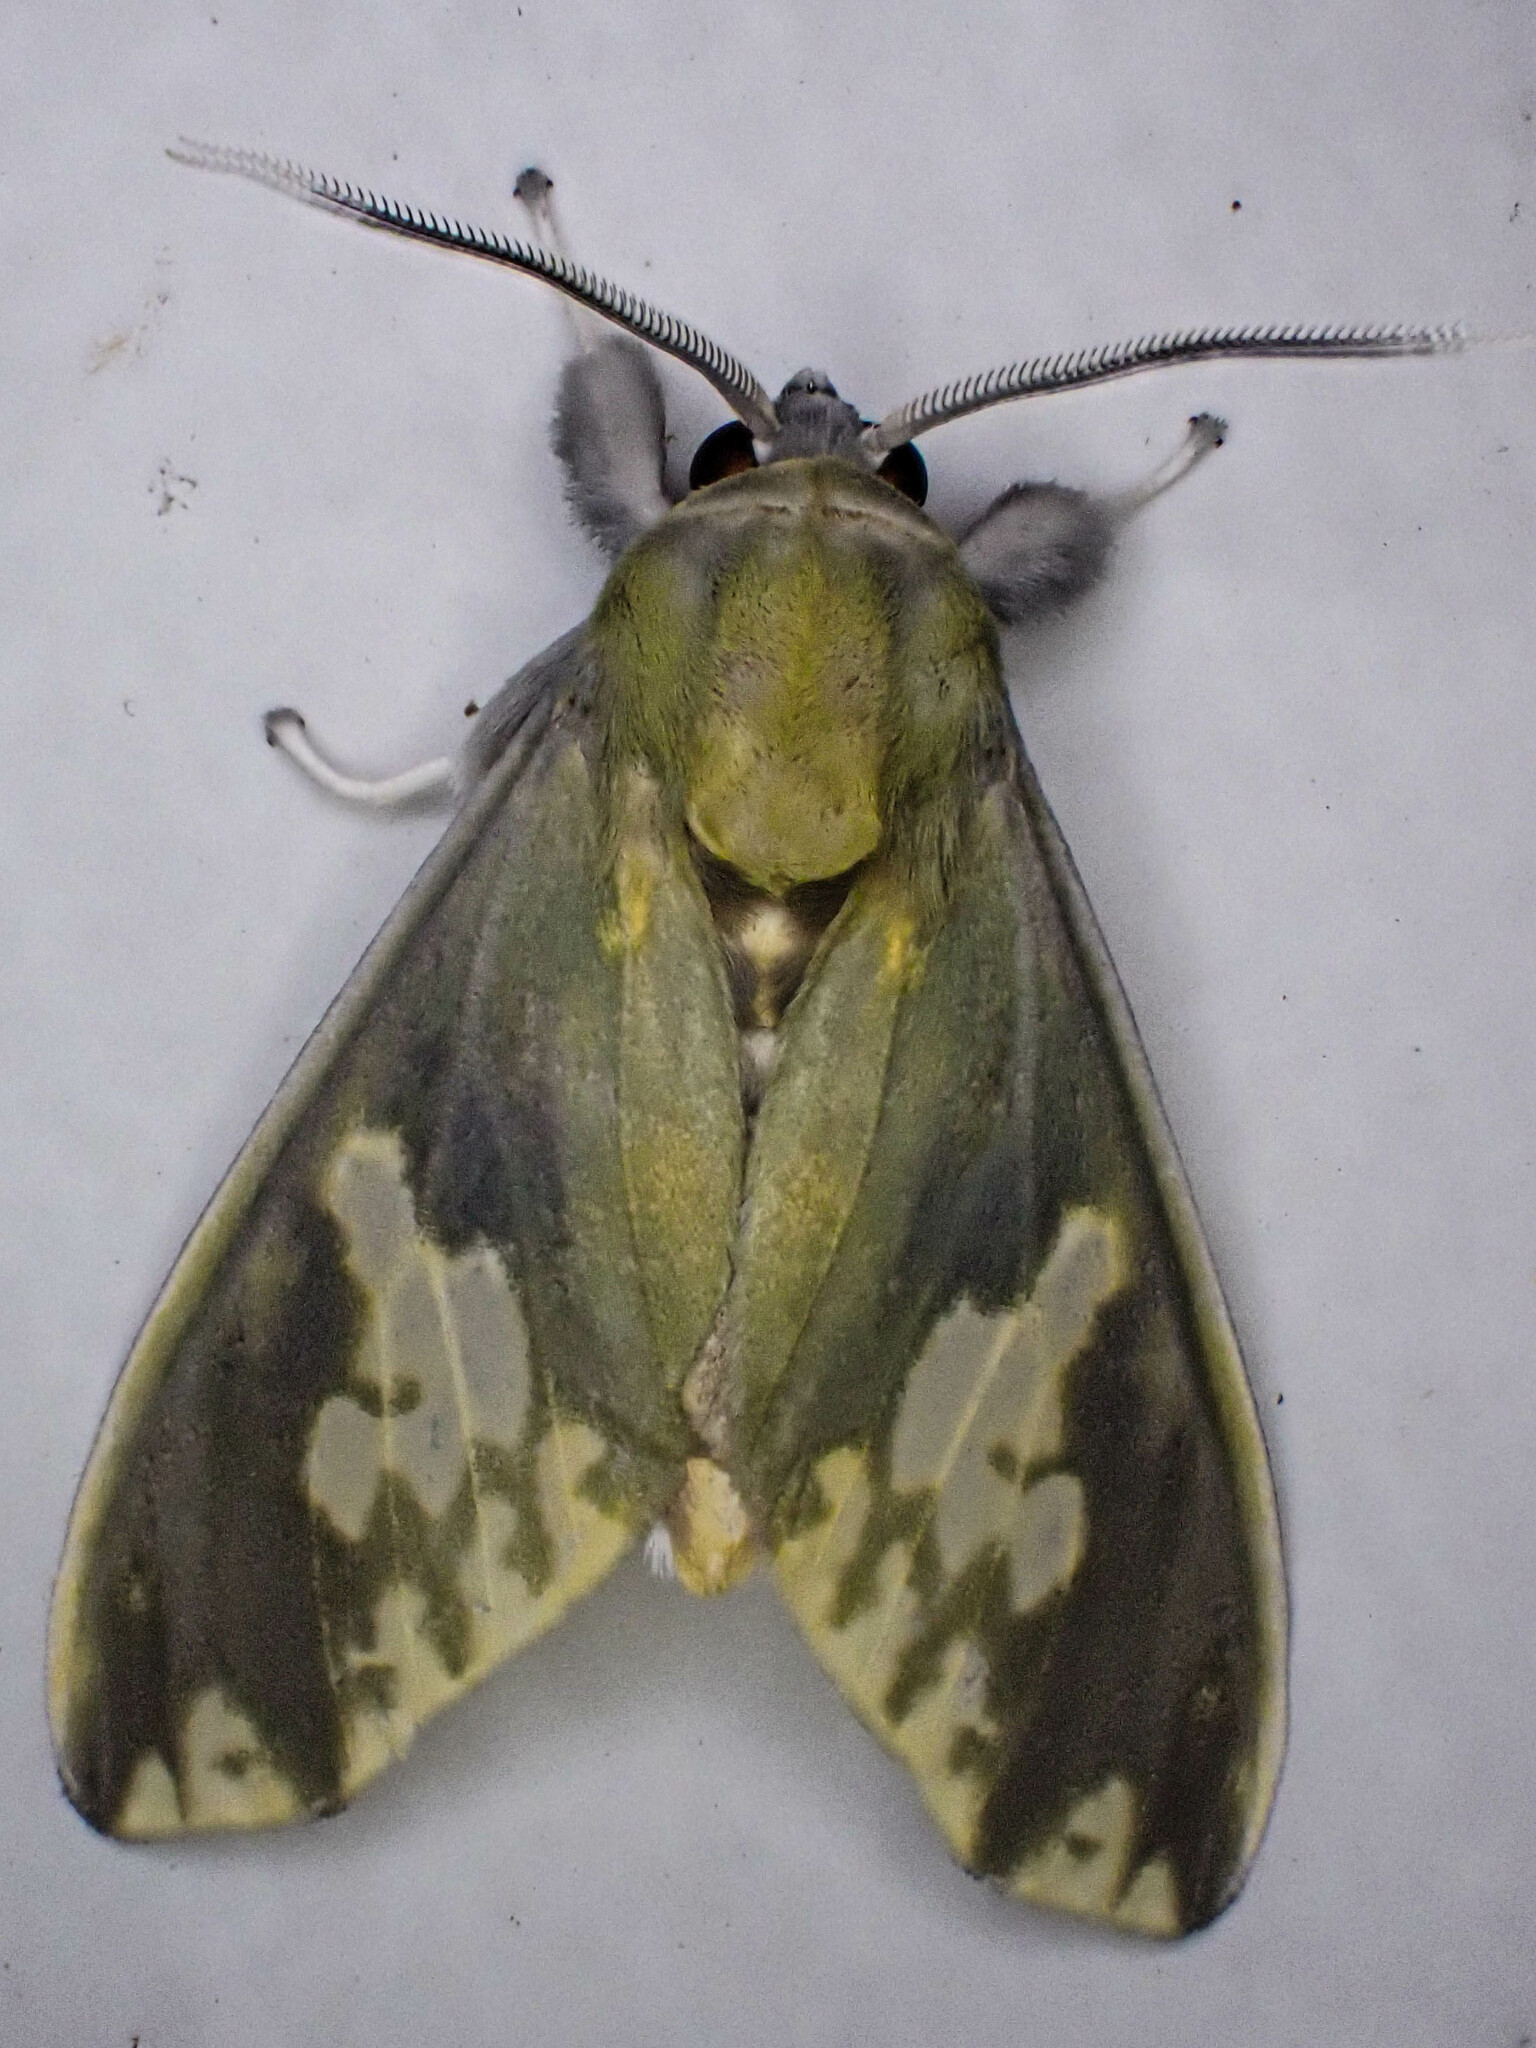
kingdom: Animalia
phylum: Arthropoda
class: Insecta
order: Lepidoptera
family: Erebidae
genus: Castrica
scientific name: Castrica phalaenoides
